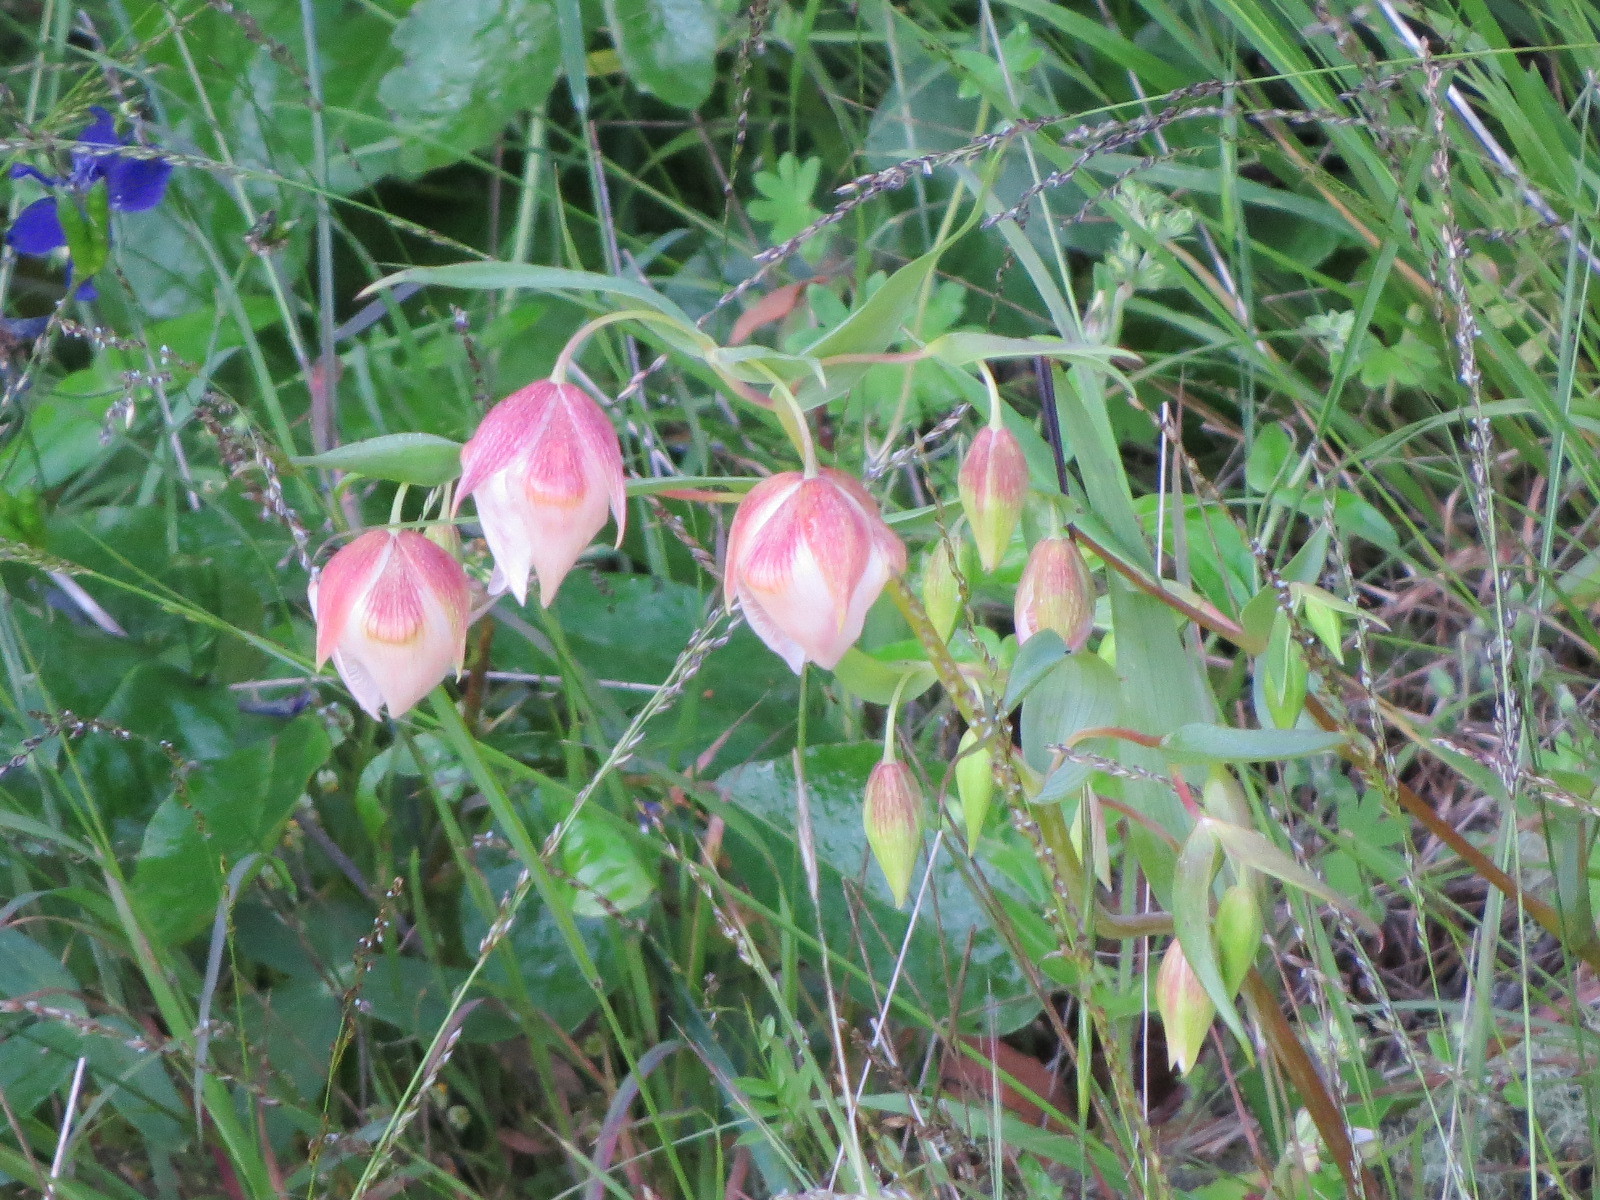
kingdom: Plantae
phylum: Tracheophyta
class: Liliopsida
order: Liliales
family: Liliaceae
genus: Calochortus
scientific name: Calochortus albus
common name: Fairy-lantern
